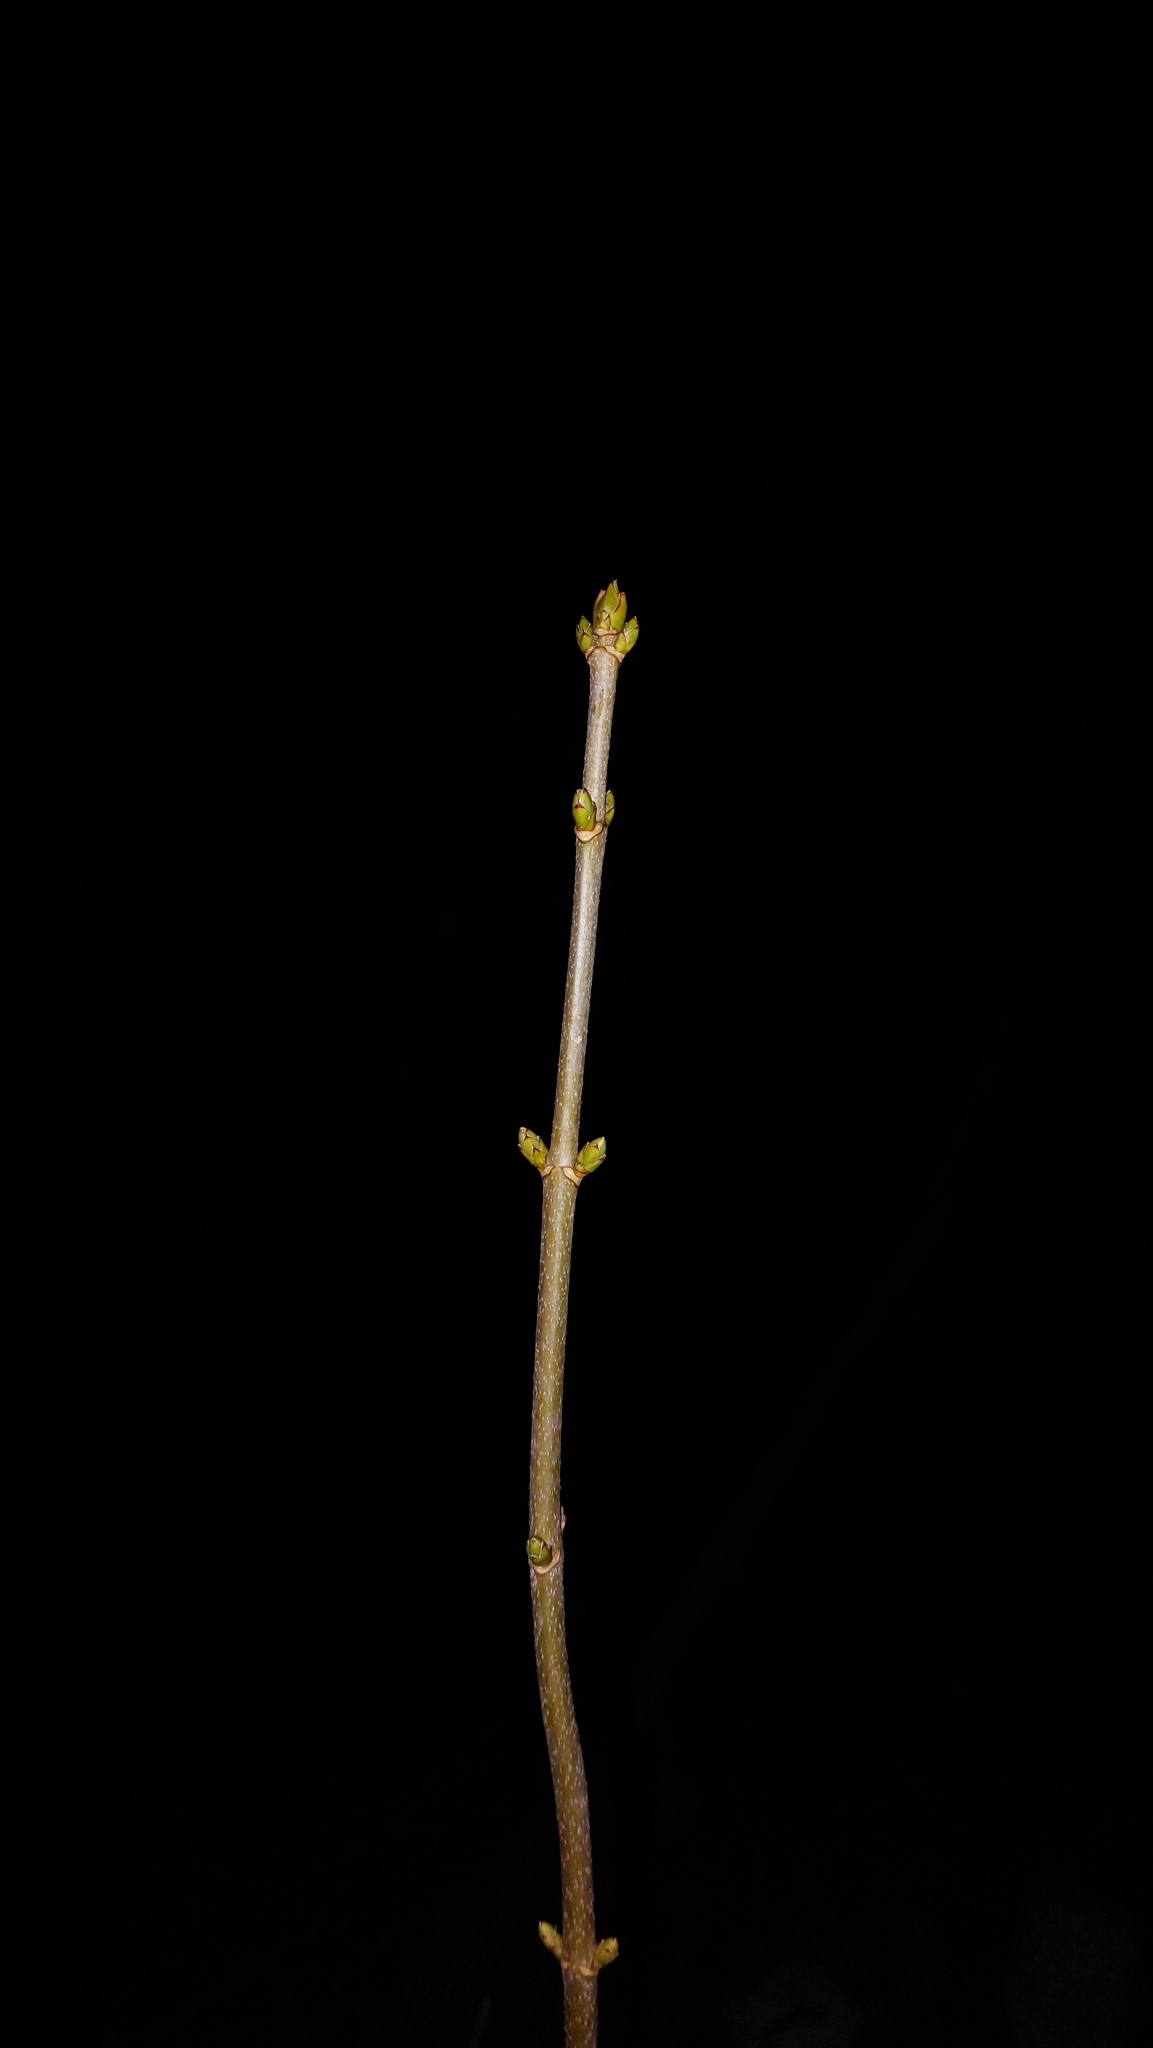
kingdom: Plantae
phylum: Tracheophyta
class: Magnoliopsida
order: Sapindales
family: Sapindaceae
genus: Acer
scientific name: Acer pseudoplatanus
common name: Sycamore
